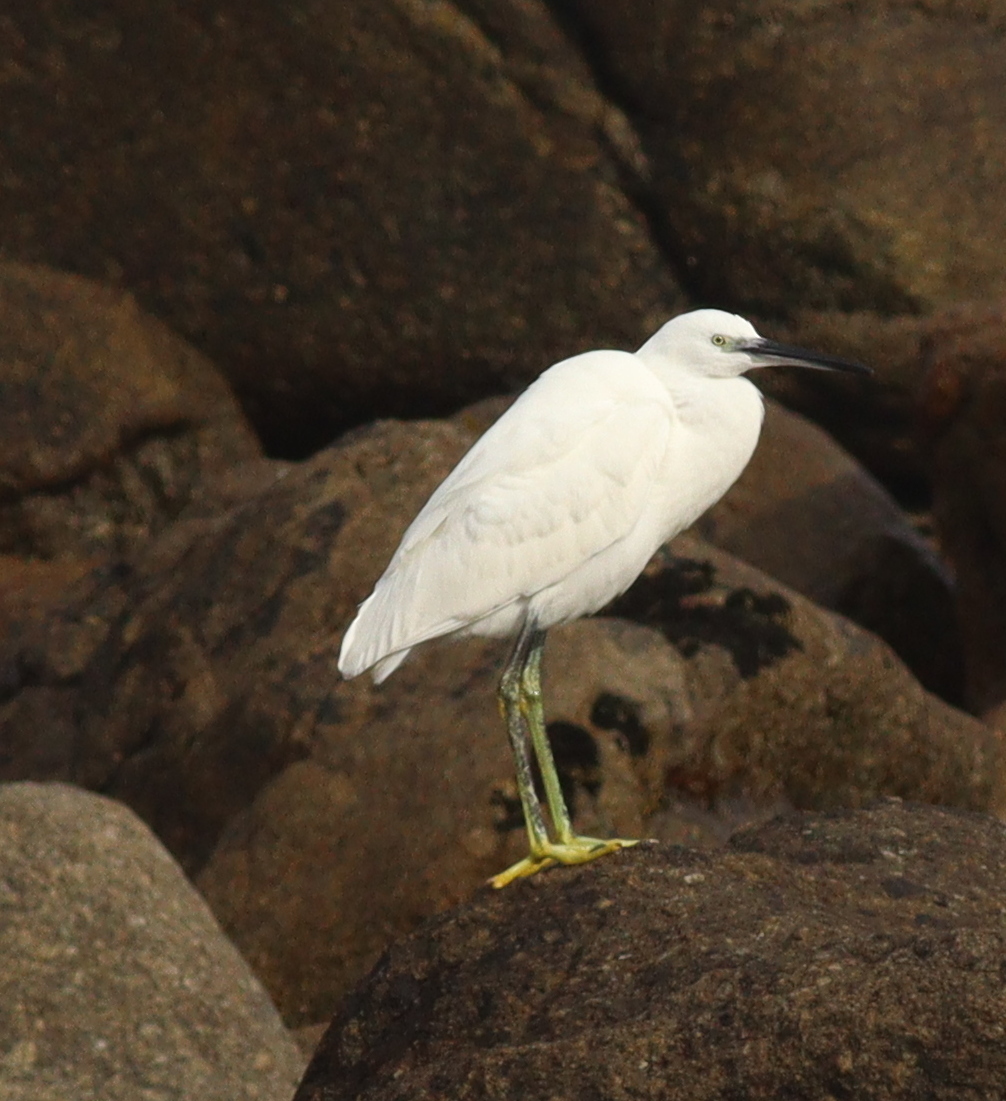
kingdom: Animalia
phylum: Chordata
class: Aves
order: Pelecaniformes
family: Ardeidae
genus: Egretta
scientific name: Egretta garzetta
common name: Little egret
